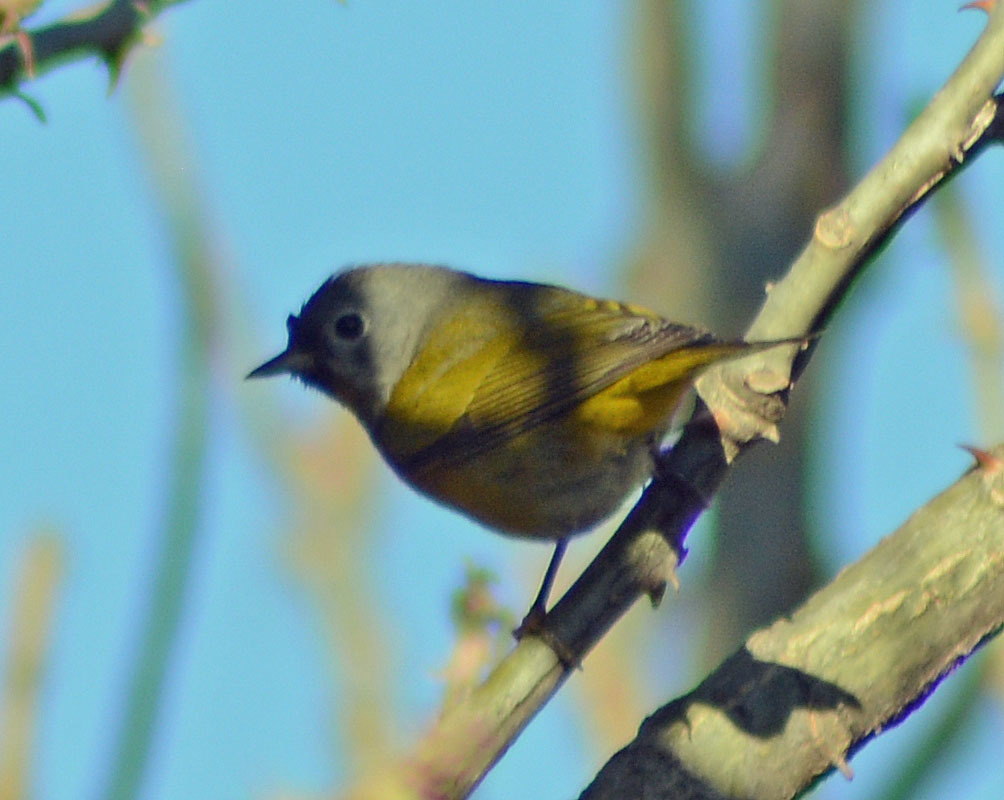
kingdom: Animalia
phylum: Chordata
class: Aves
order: Passeriformes
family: Parulidae
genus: Leiothlypis
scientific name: Leiothlypis ruficapilla
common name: Nashville warbler
